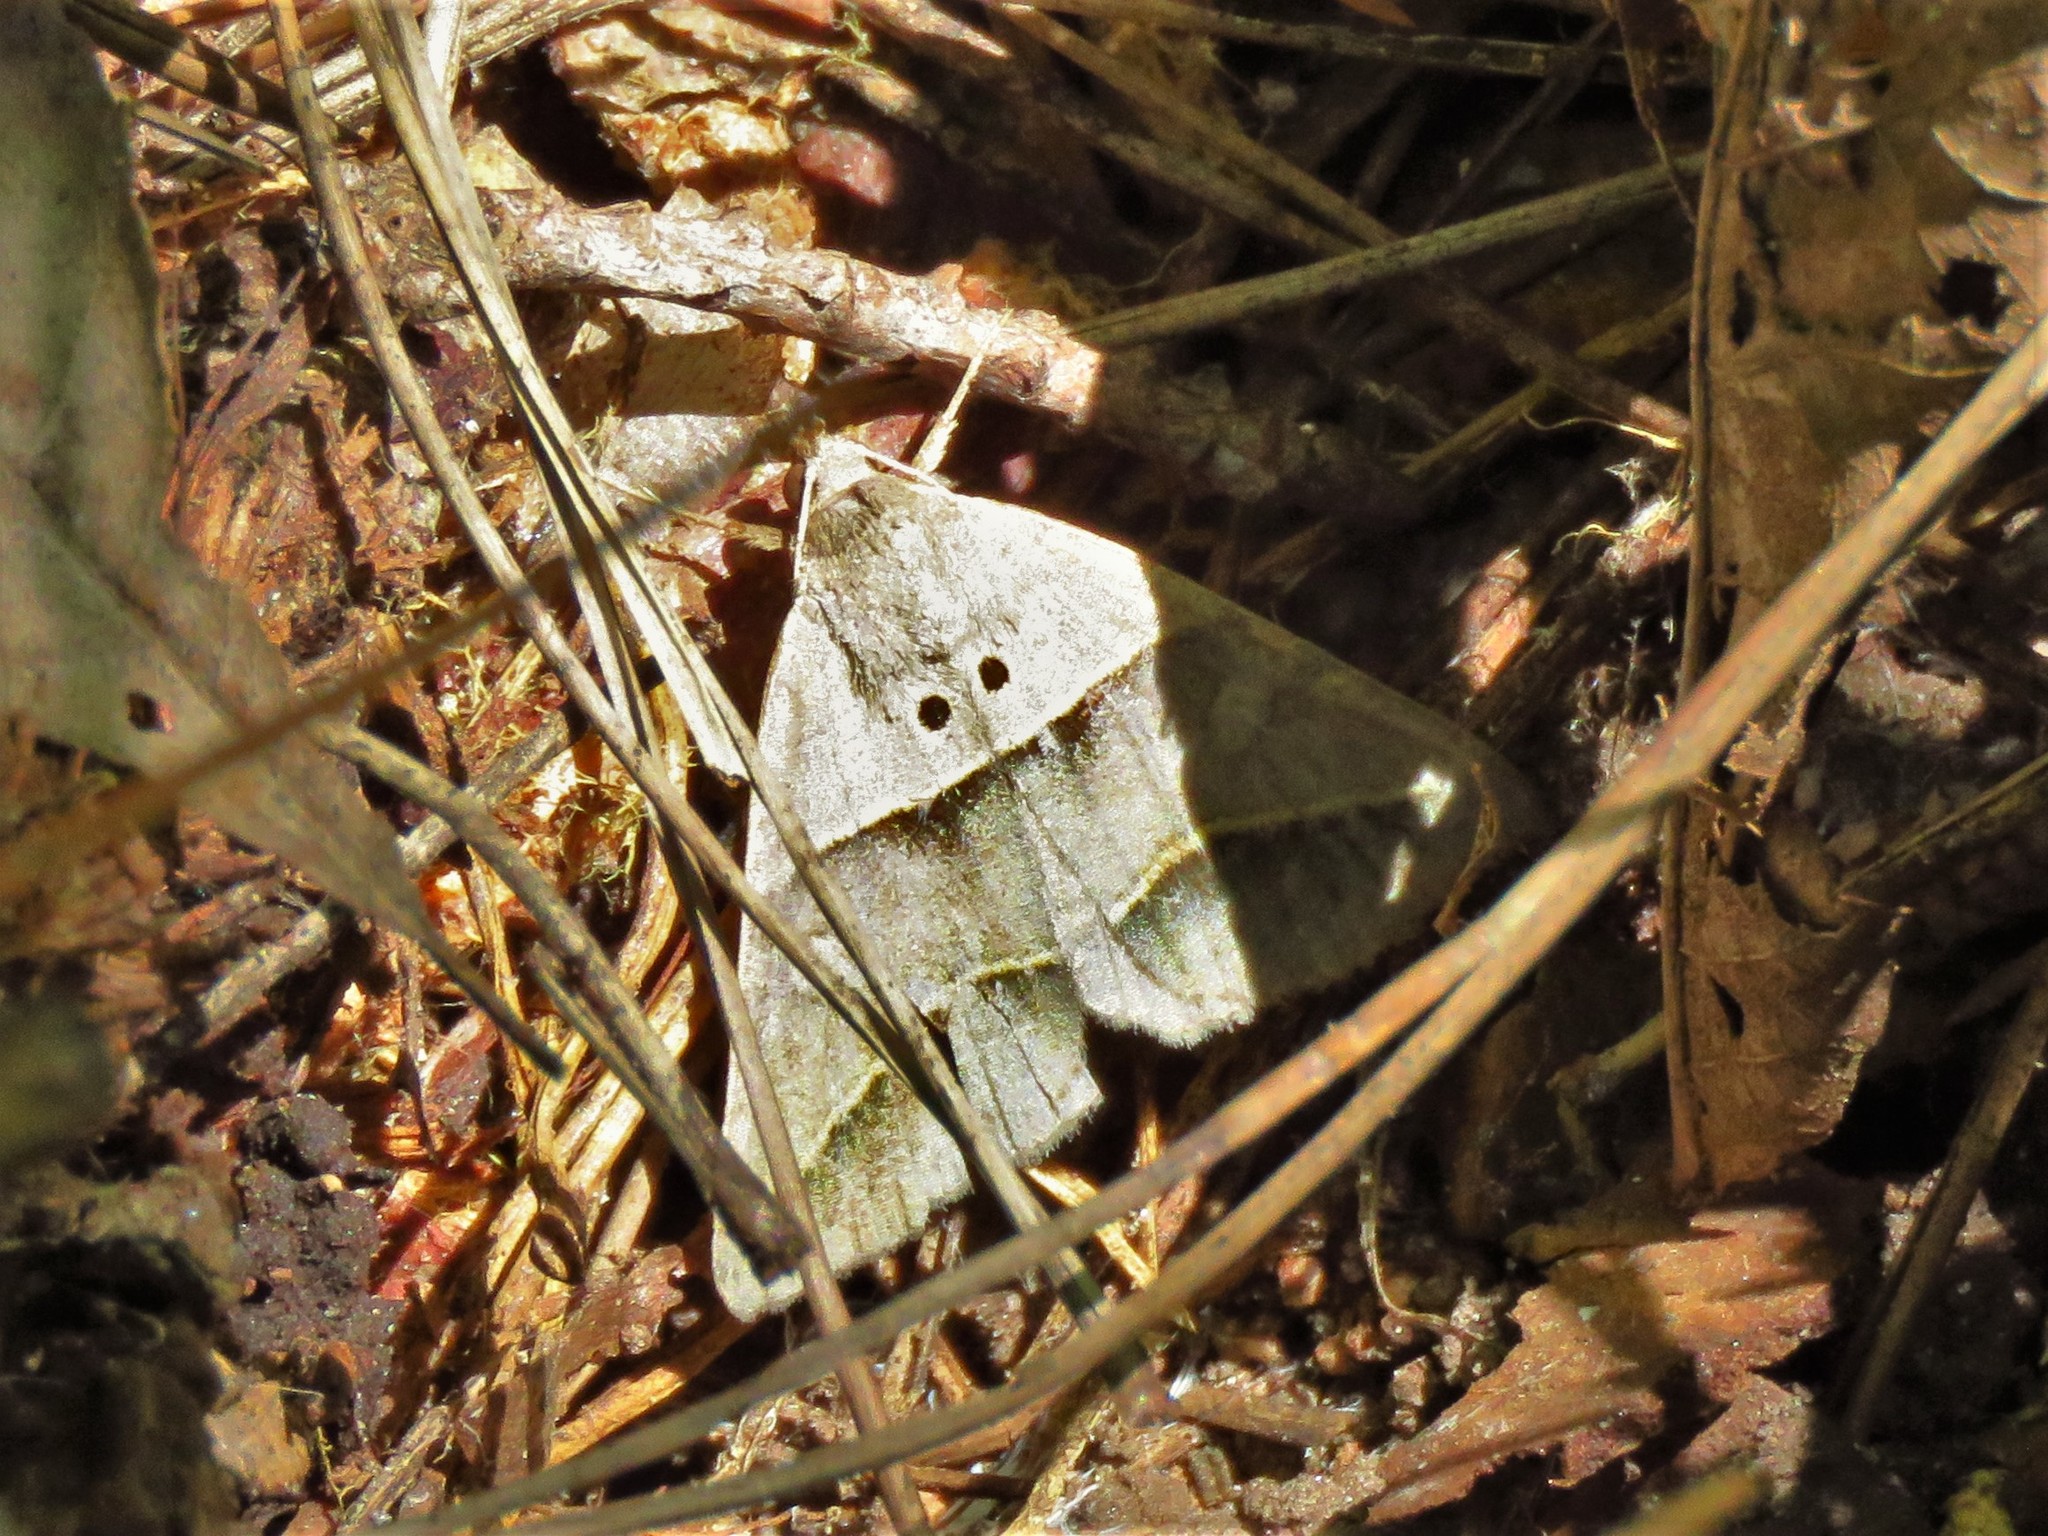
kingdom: Animalia
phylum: Arthropoda
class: Insecta
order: Lepidoptera
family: Erebidae
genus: Ptichodis
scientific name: Ptichodis herbarum
